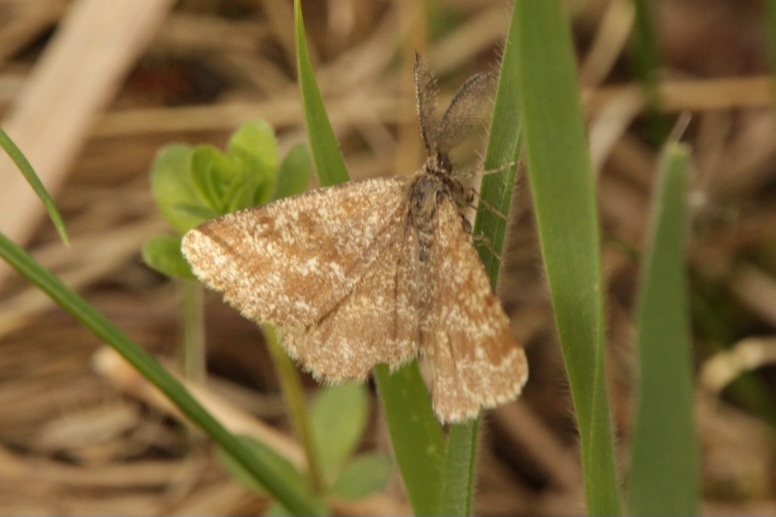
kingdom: Animalia
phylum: Arthropoda
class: Insecta
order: Lepidoptera
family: Geometridae
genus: Ematurga
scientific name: Ematurga atomaria
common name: Common heath
